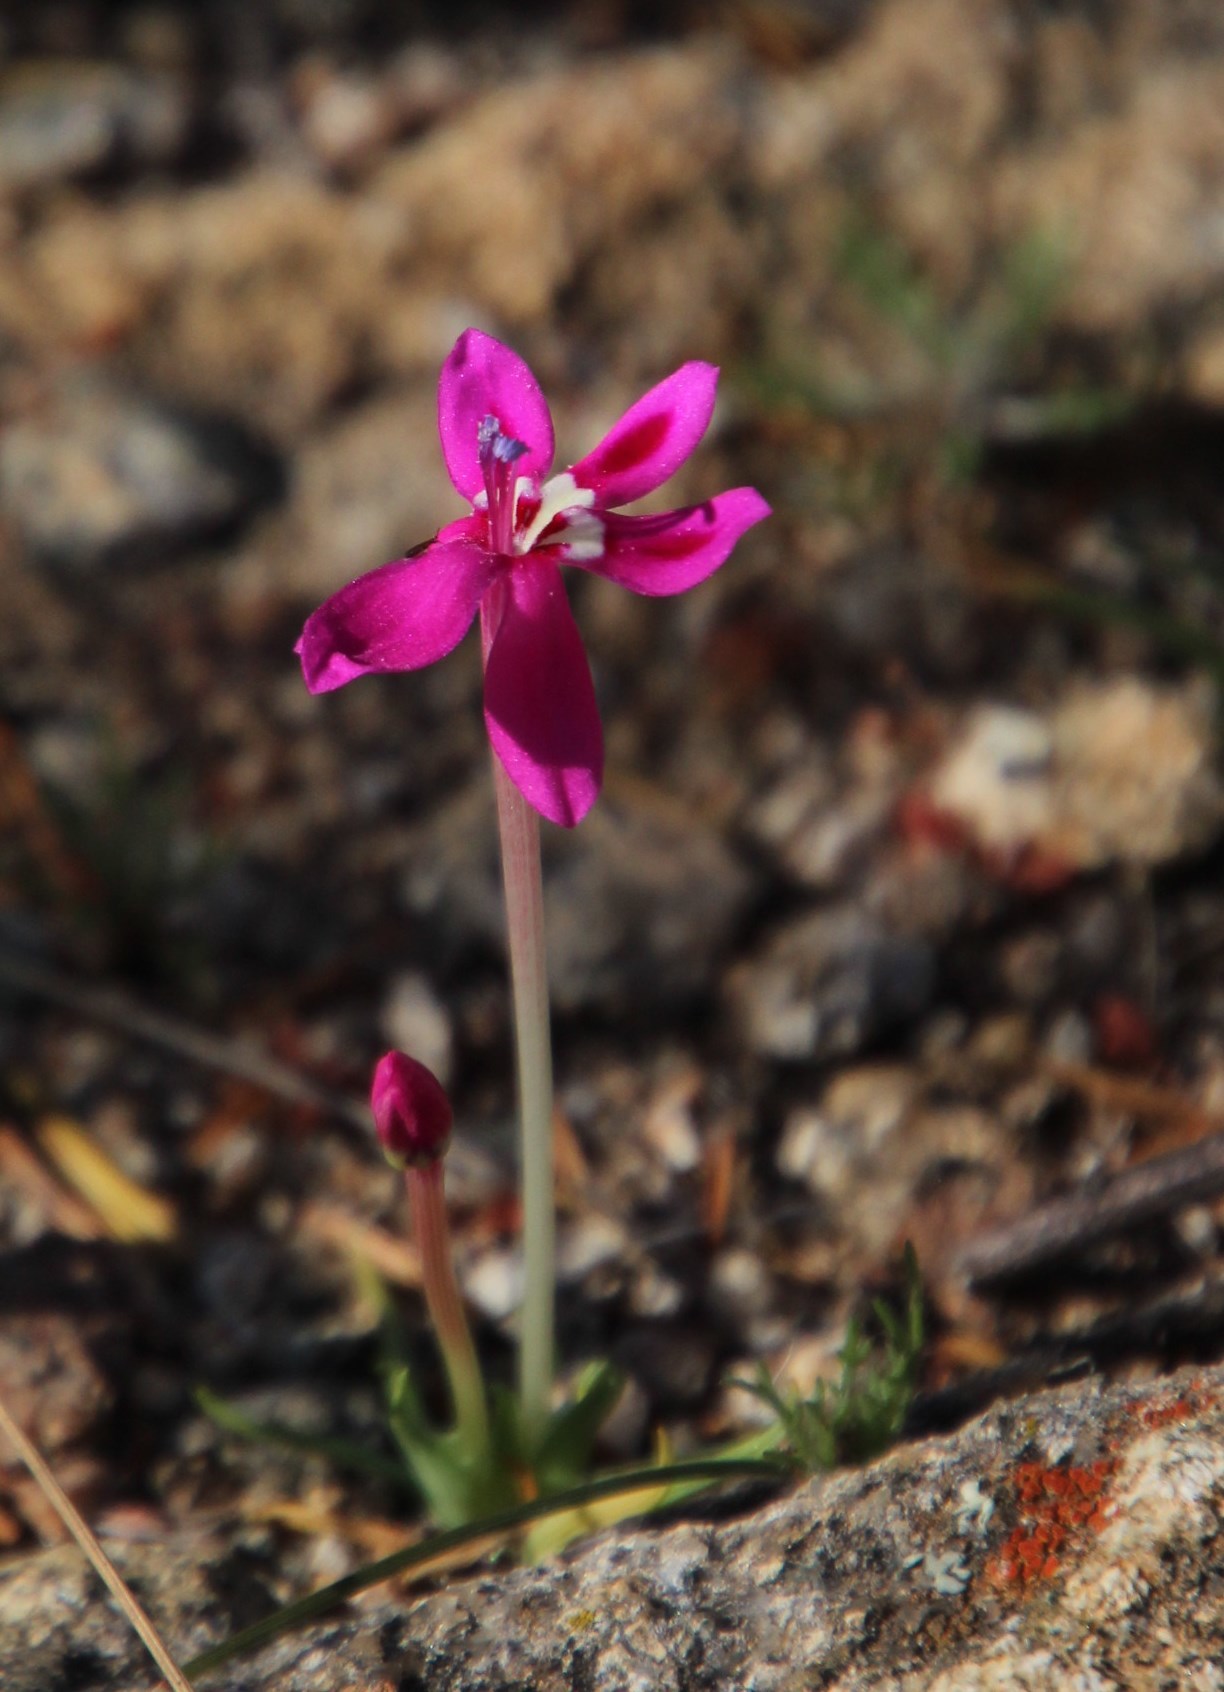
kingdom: Plantae
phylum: Tracheophyta
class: Liliopsida
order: Asparagales
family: Iridaceae
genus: Lapeirousia
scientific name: Lapeirousia silenoides
